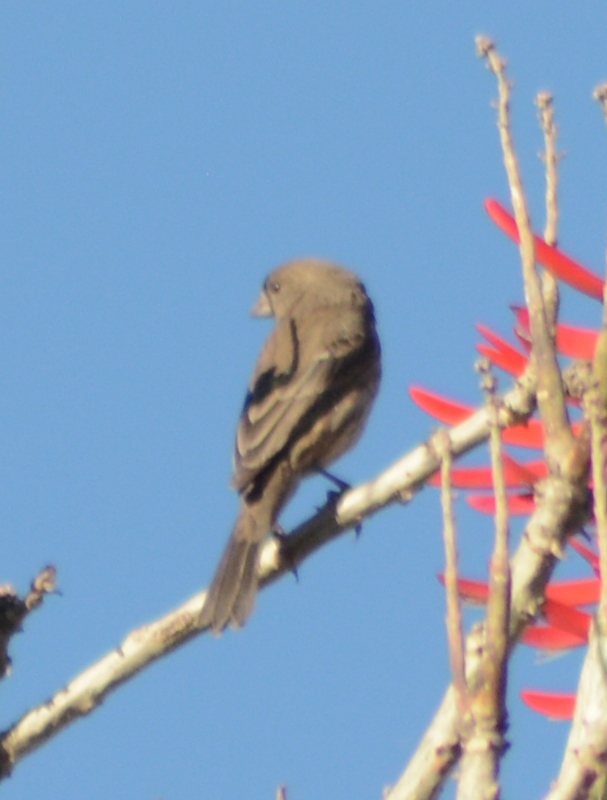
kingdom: Animalia
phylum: Chordata
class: Aves
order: Passeriformes
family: Fringillidae
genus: Haemorhous
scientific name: Haemorhous mexicanus
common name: House finch
